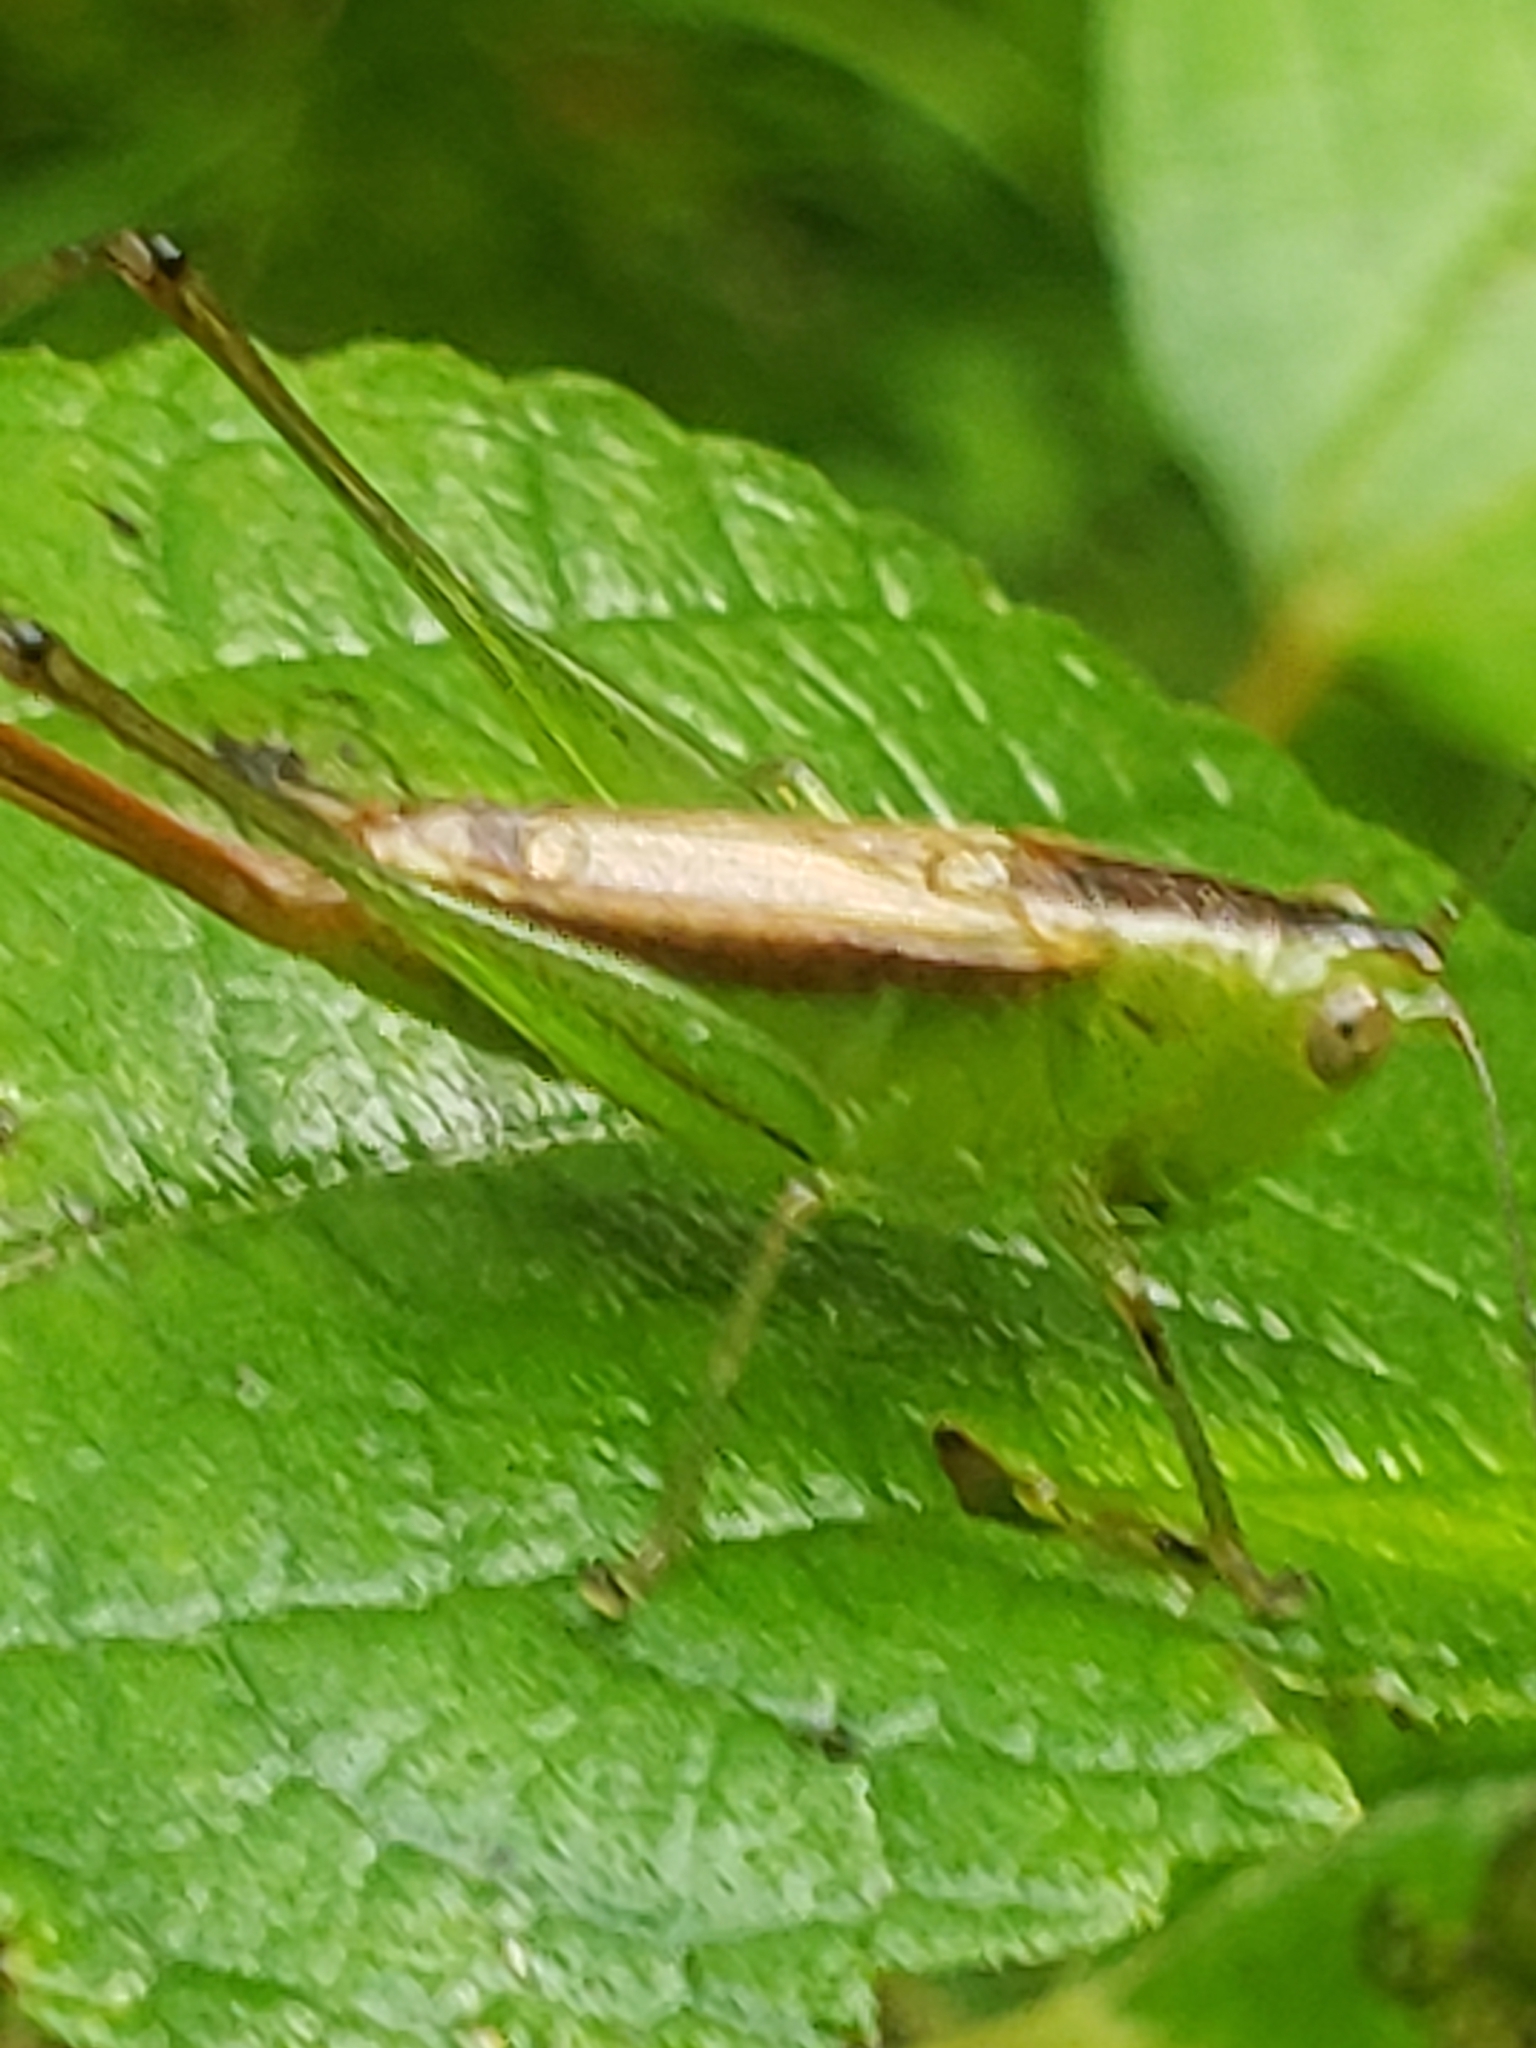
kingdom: Animalia
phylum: Arthropoda
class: Insecta
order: Orthoptera
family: Tettigoniidae
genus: Conocephalus
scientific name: Conocephalus brevipennis
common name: Short-winged meadow katydid
